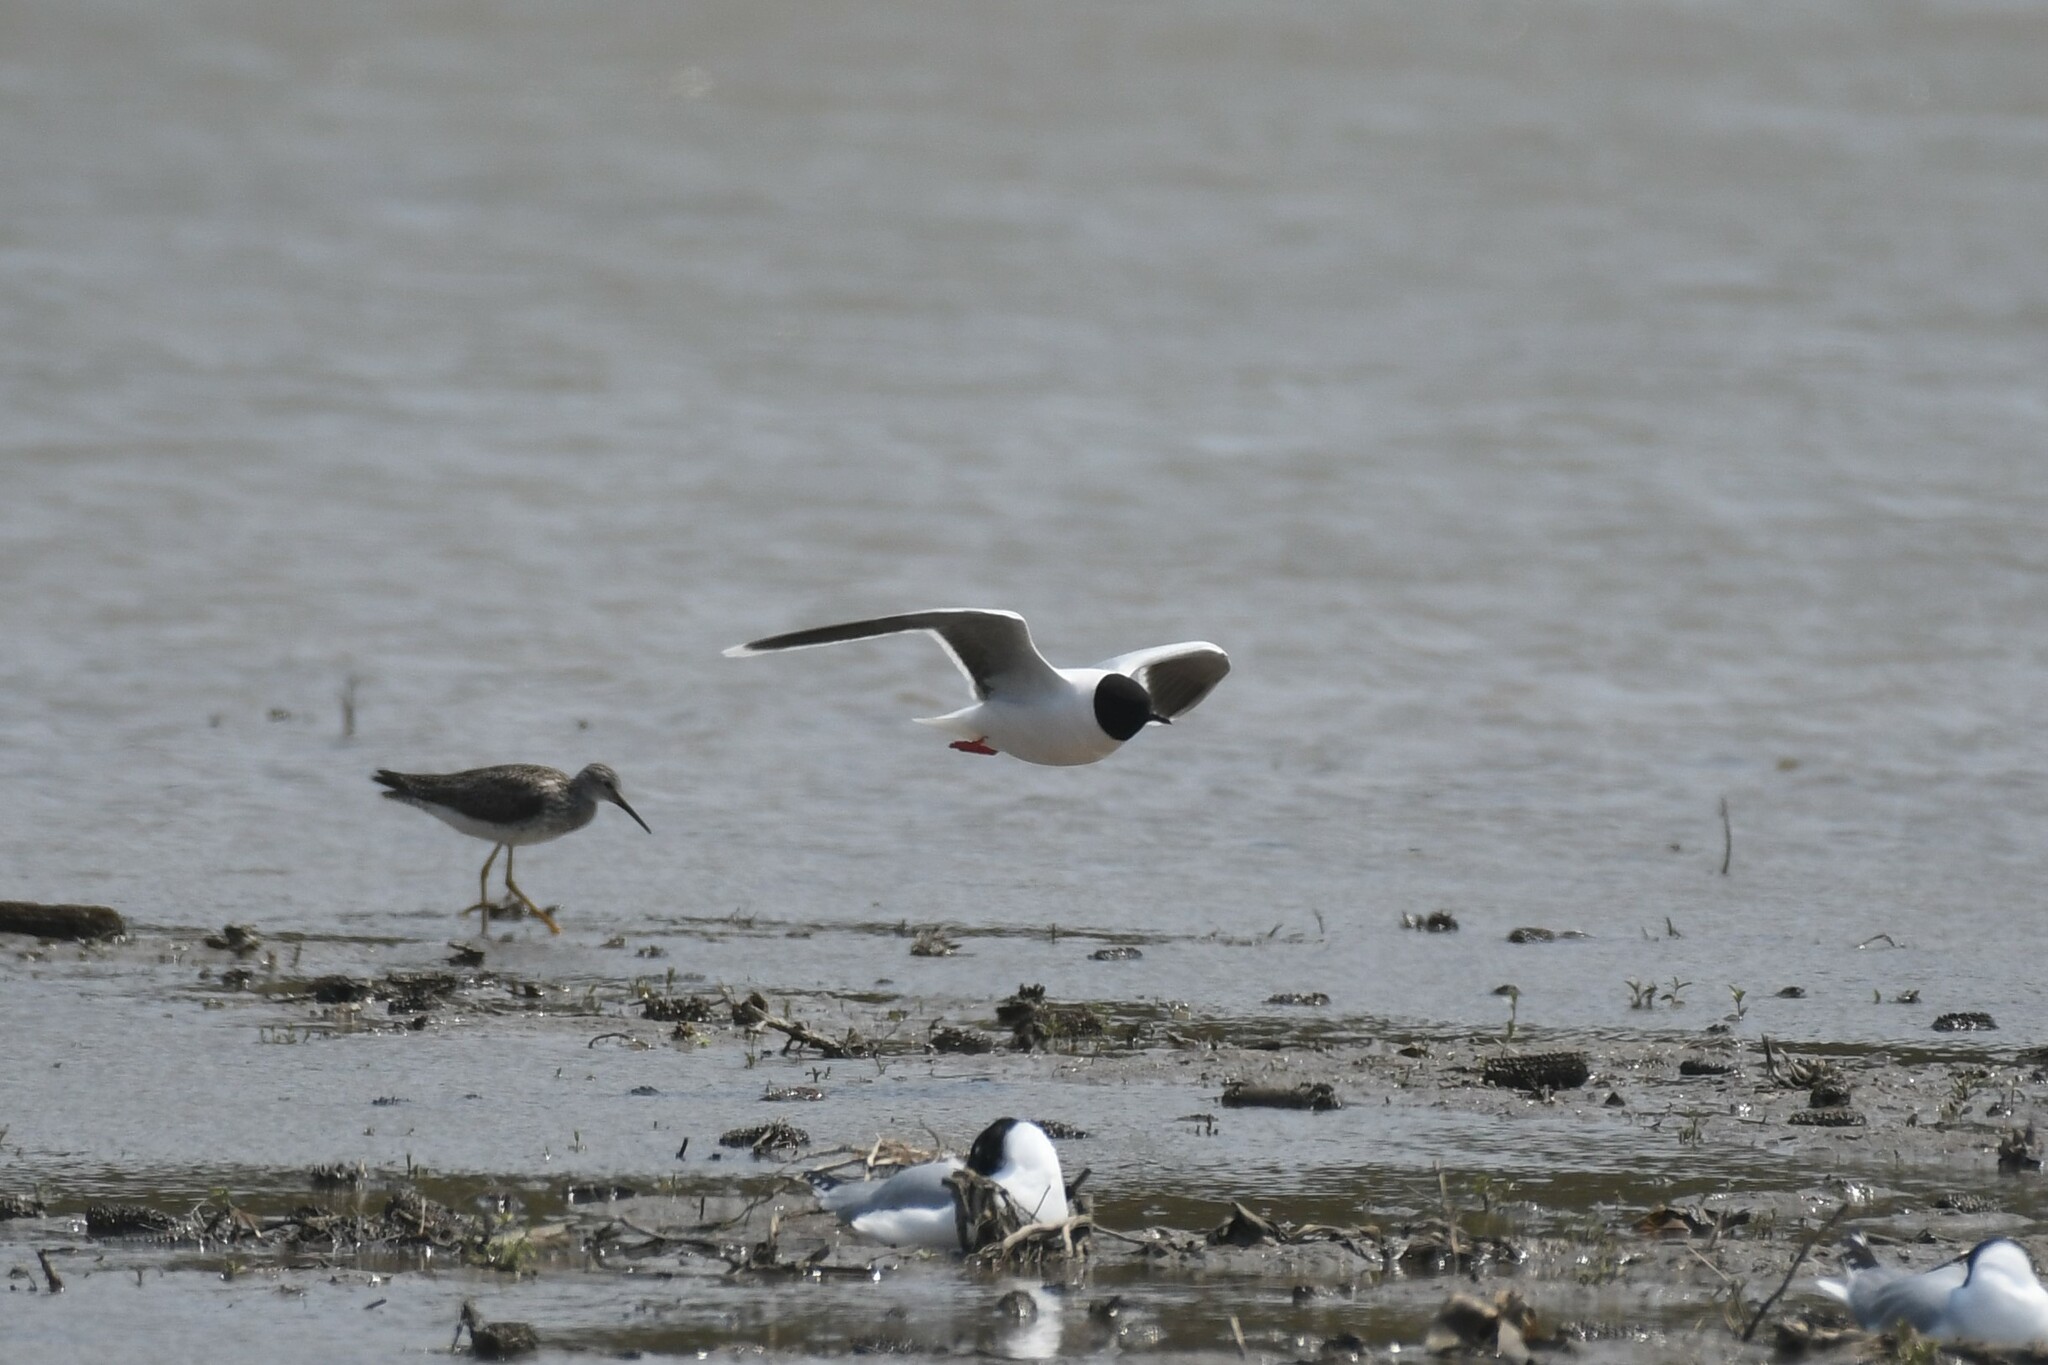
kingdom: Animalia
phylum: Chordata
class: Aves
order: Charadriiformes
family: Laridae
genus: Hydrocoloeus
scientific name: Hydrocoloeus minutus
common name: Little gull
